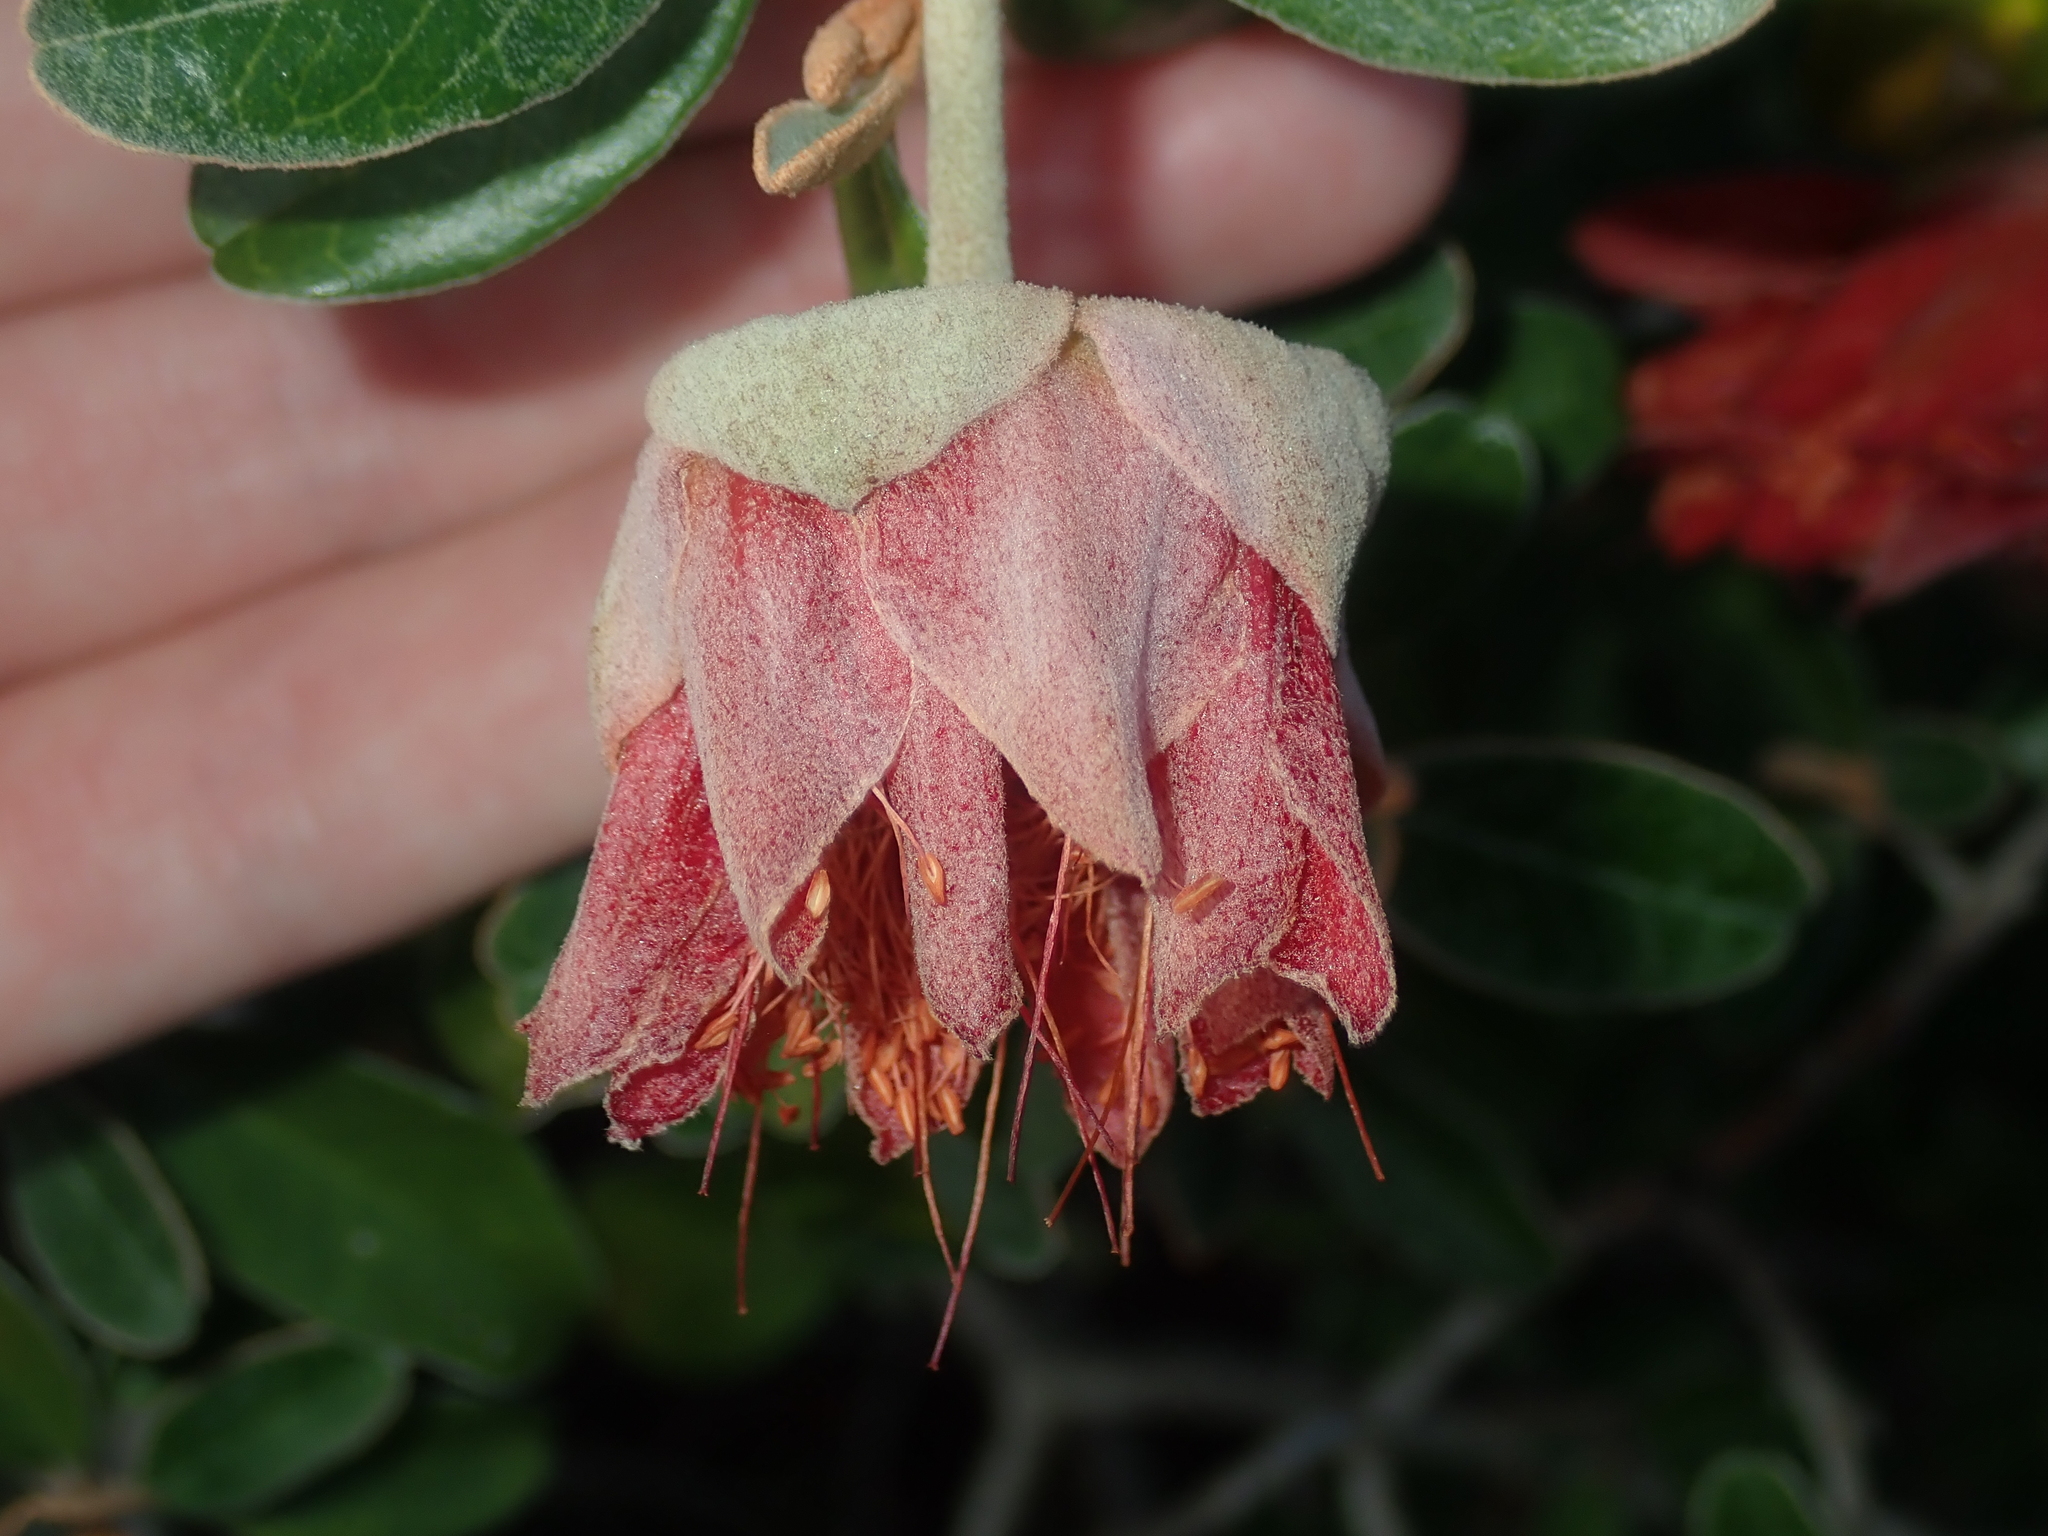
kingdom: Plantae
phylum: Tracheophyta
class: Magnoliopsida
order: Sapindales
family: Rutaceae
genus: Diplolaena
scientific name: Diplolaena grandiflora
